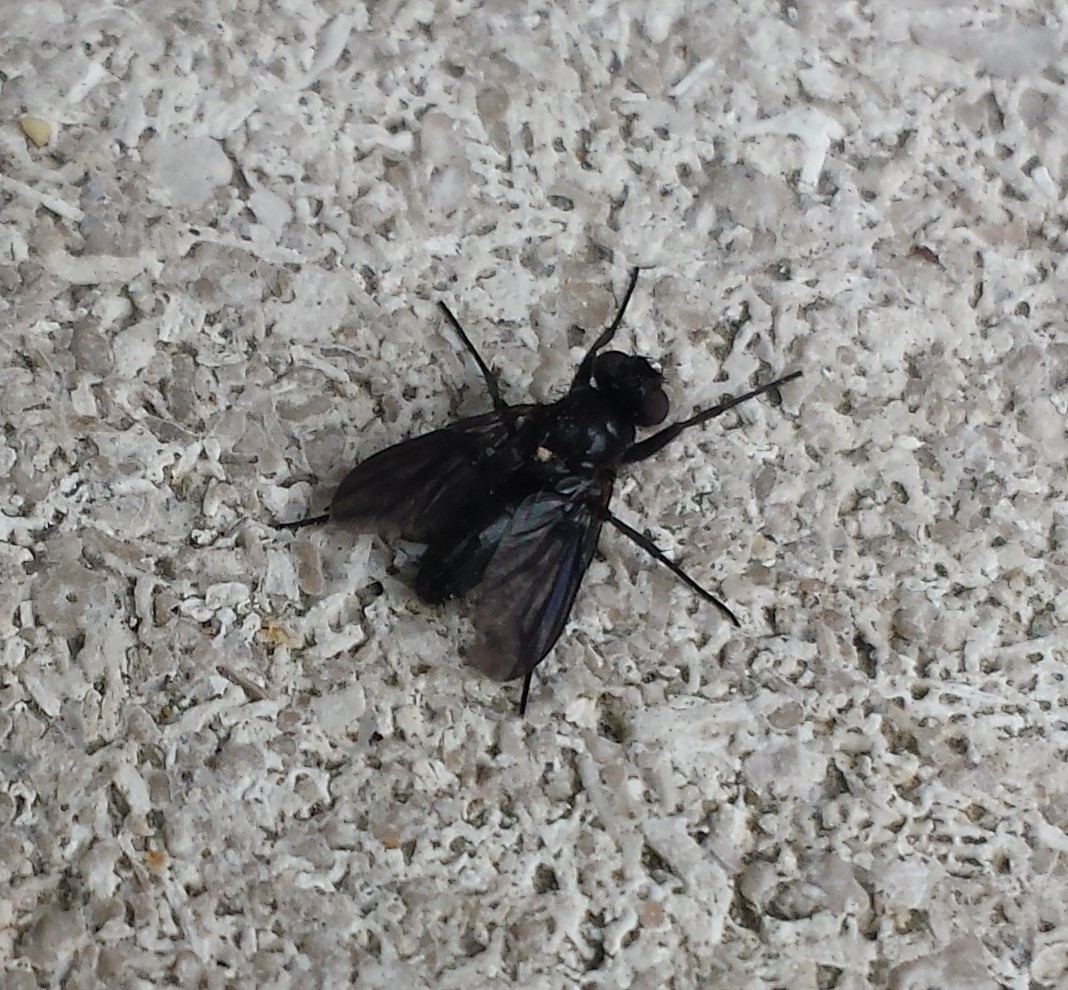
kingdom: Animalia
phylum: Arthropoda
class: Insecta
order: Diptera
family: Calliphoridae
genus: Melanophora
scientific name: Melanophora roralis
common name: Smoky-winged woodlouse-fly
